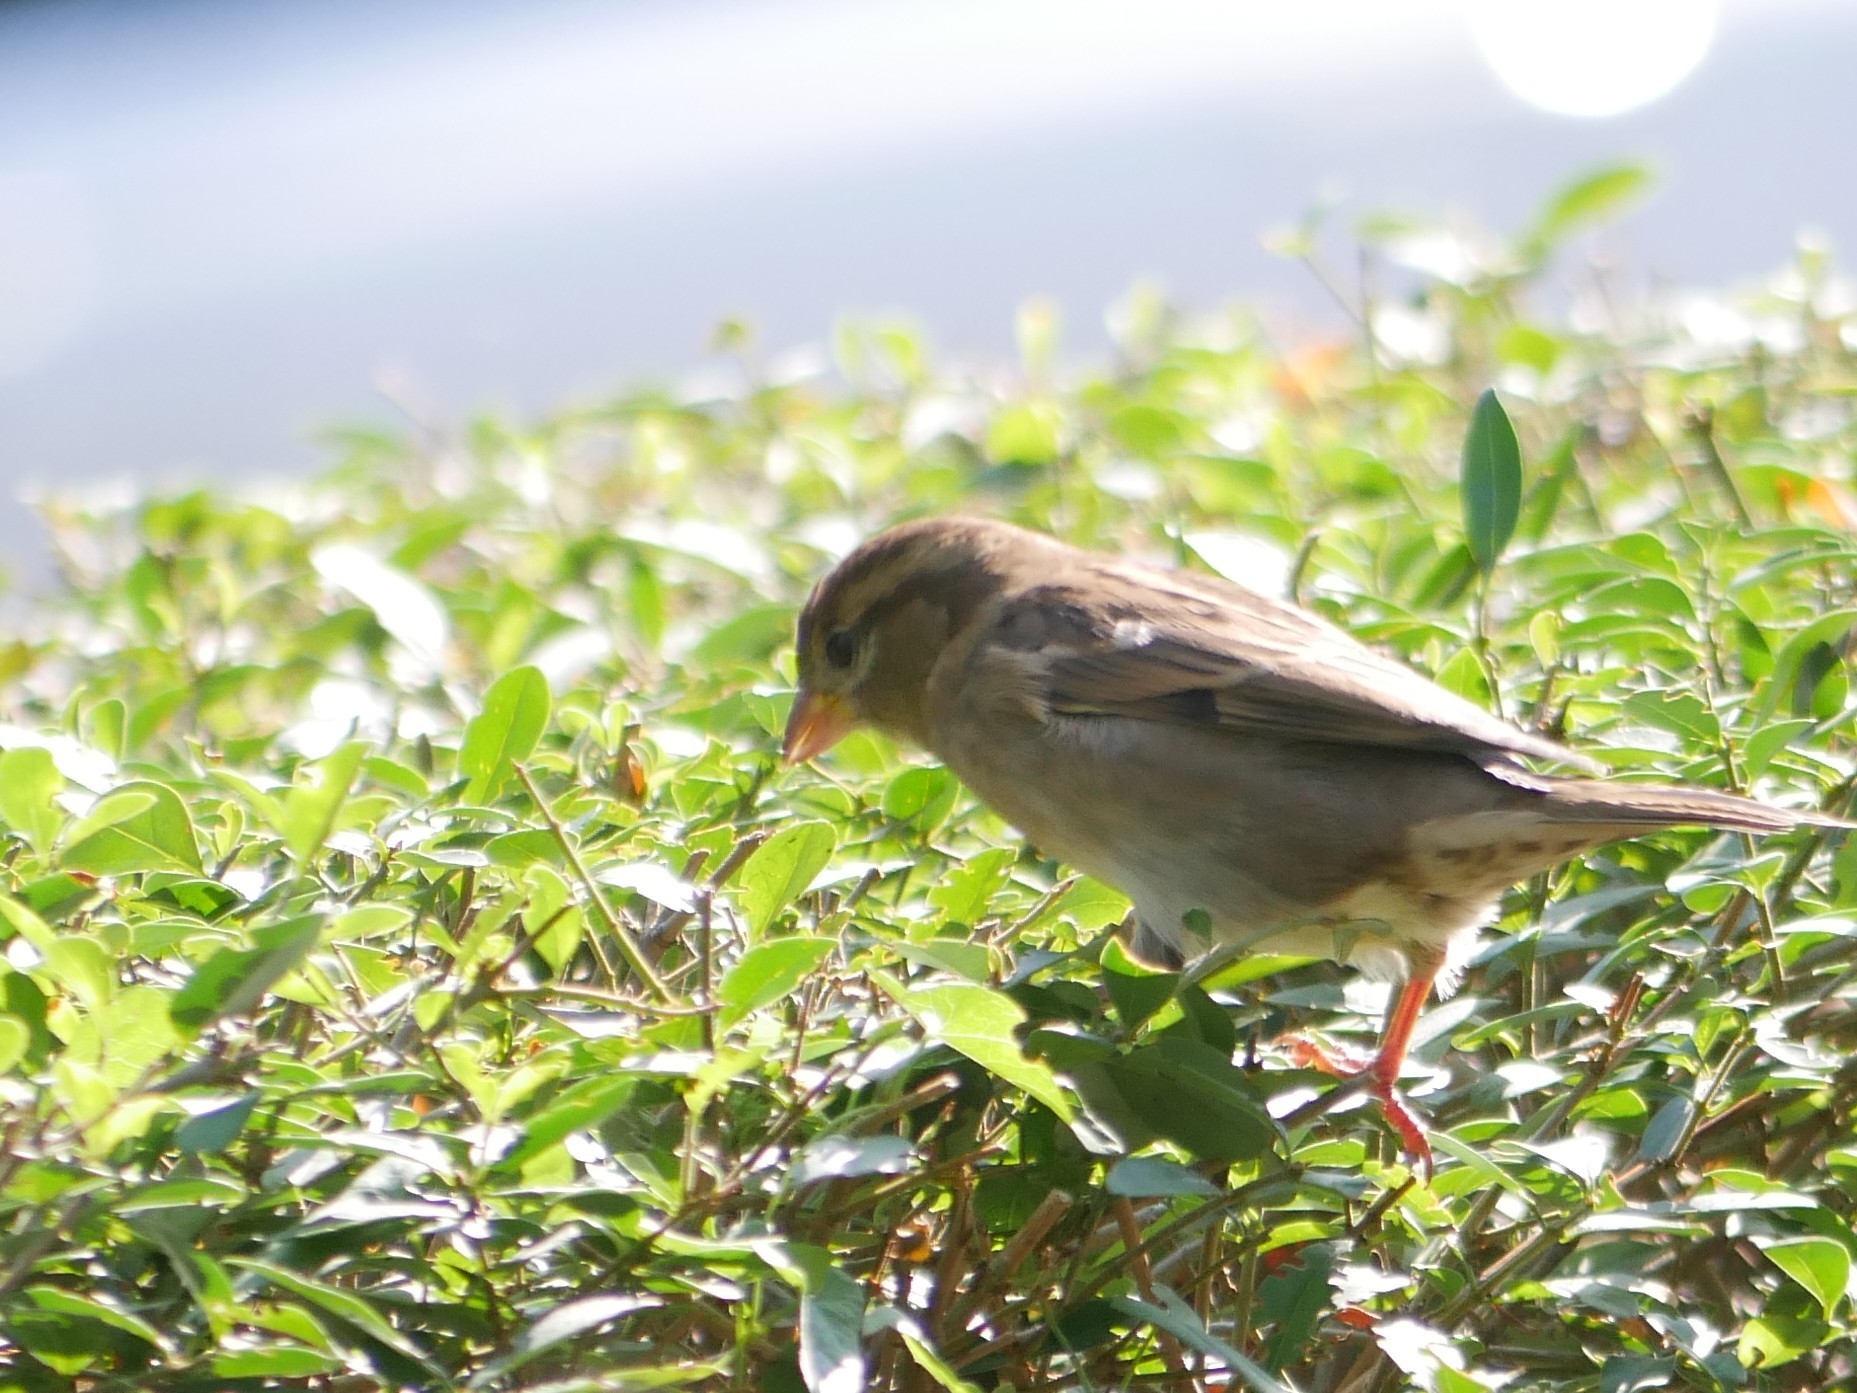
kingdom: Animalia
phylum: Chordata
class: Aves
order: Passeriformes
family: Passeridae
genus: Passer
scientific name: Passer domesticus
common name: House sparrow
